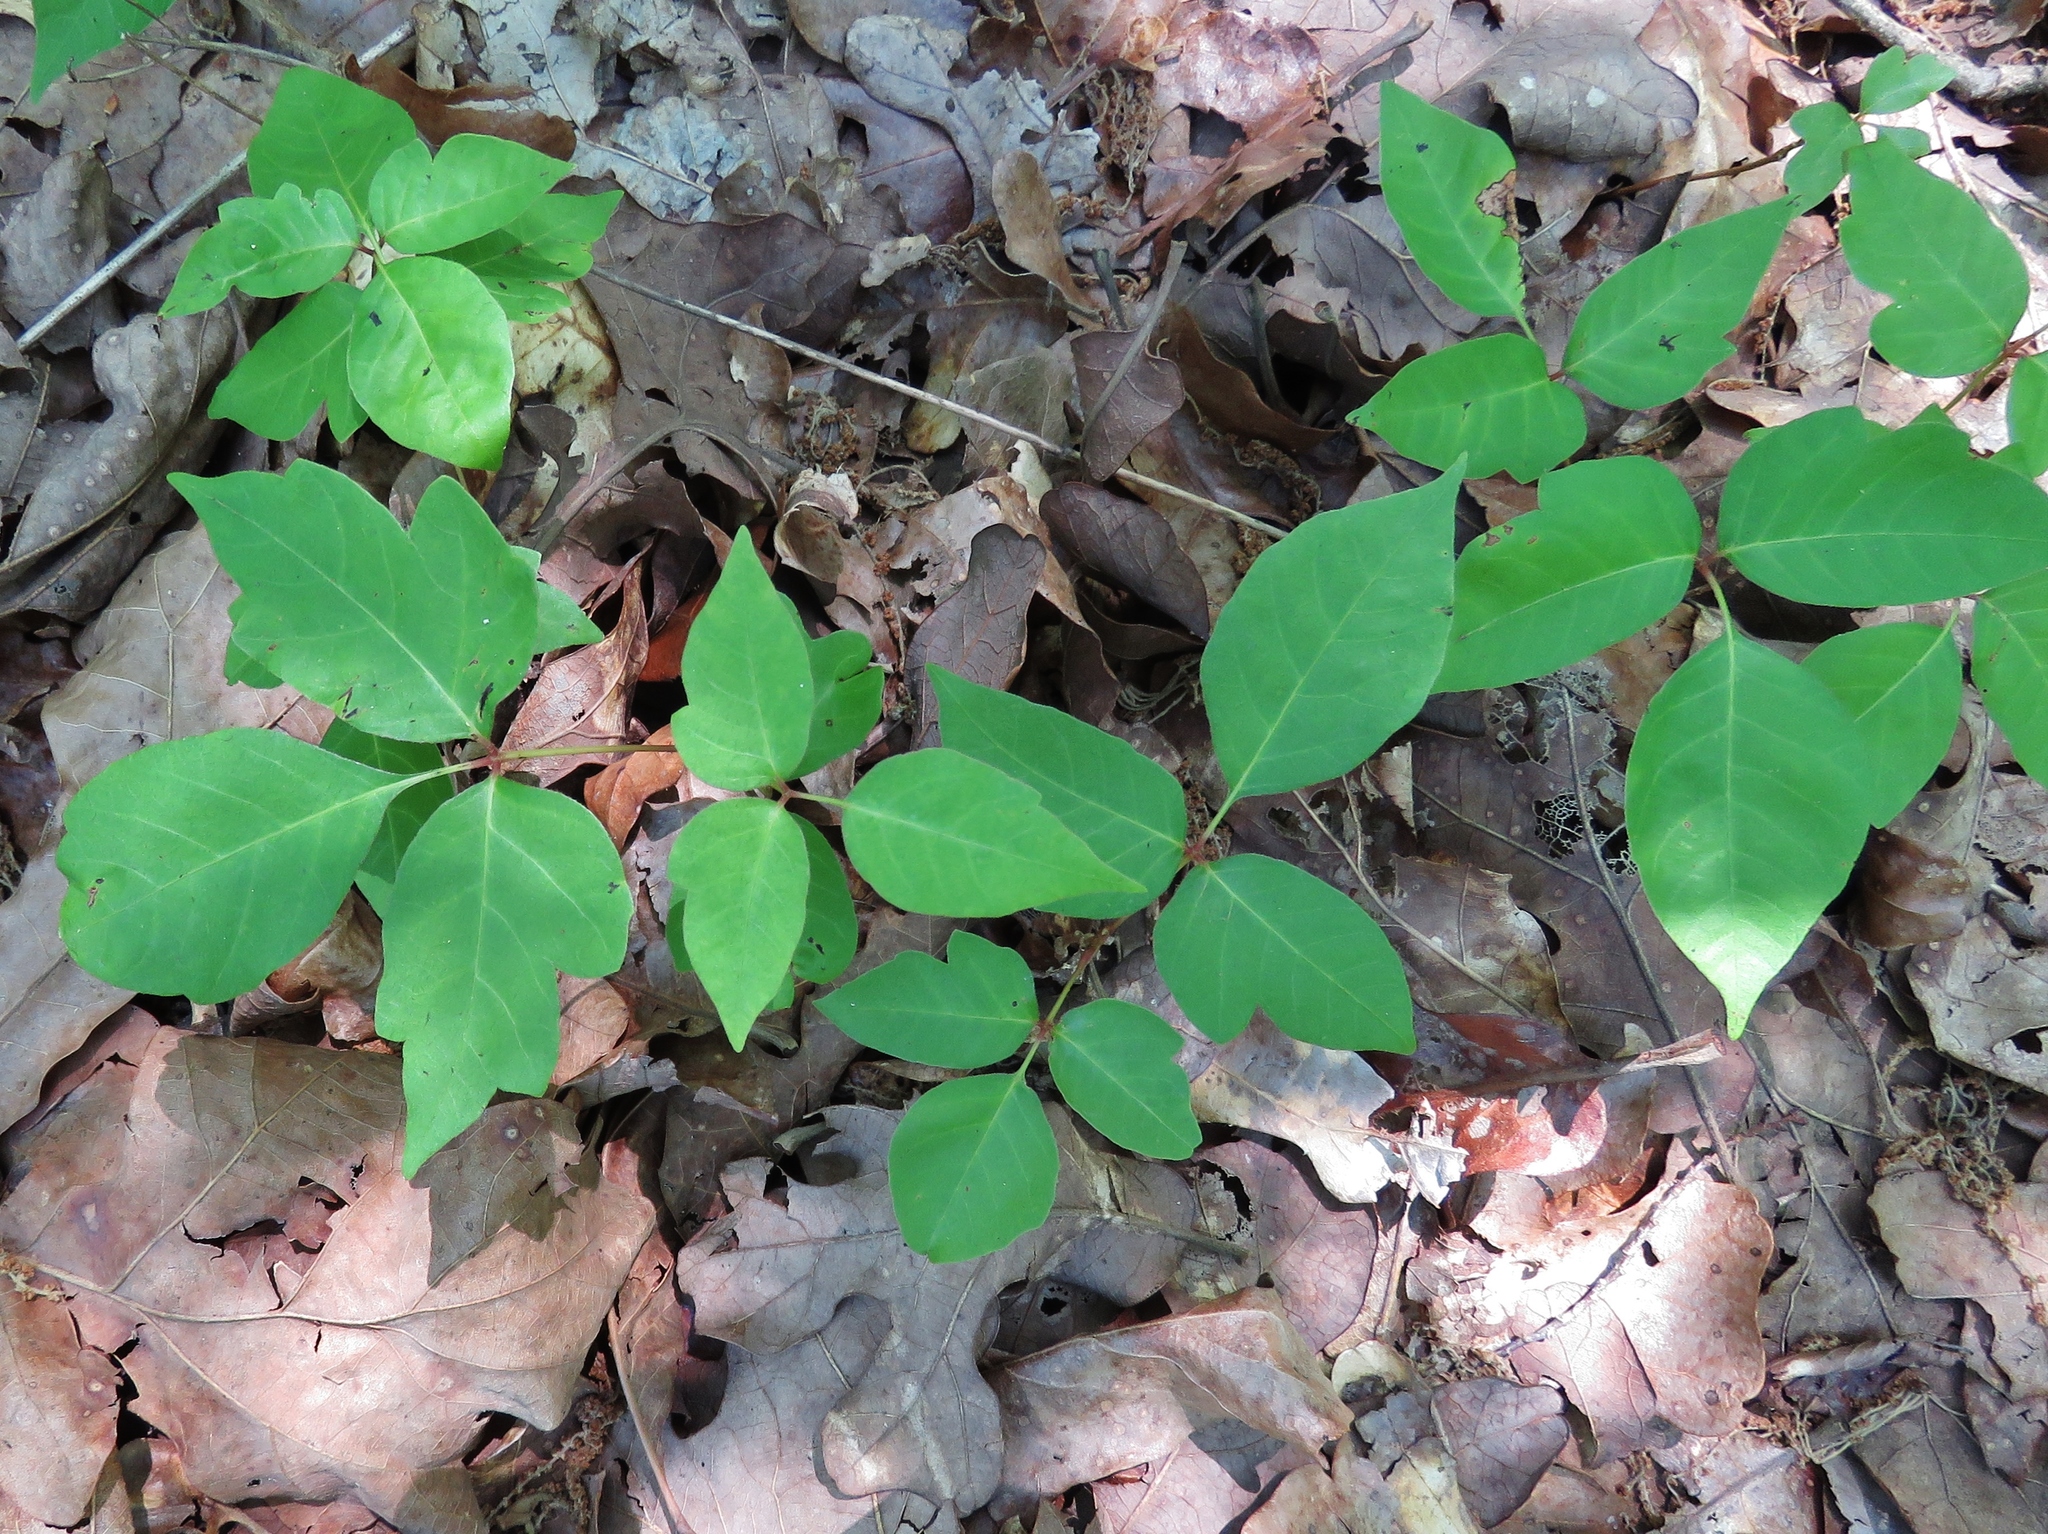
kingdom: Plantae
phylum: Tracheophyta
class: Magnoliopsida
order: Sapindales
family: Anacardiaceae
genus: Toxicodendron
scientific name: Toxicodendron radicans
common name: Poison ivy
